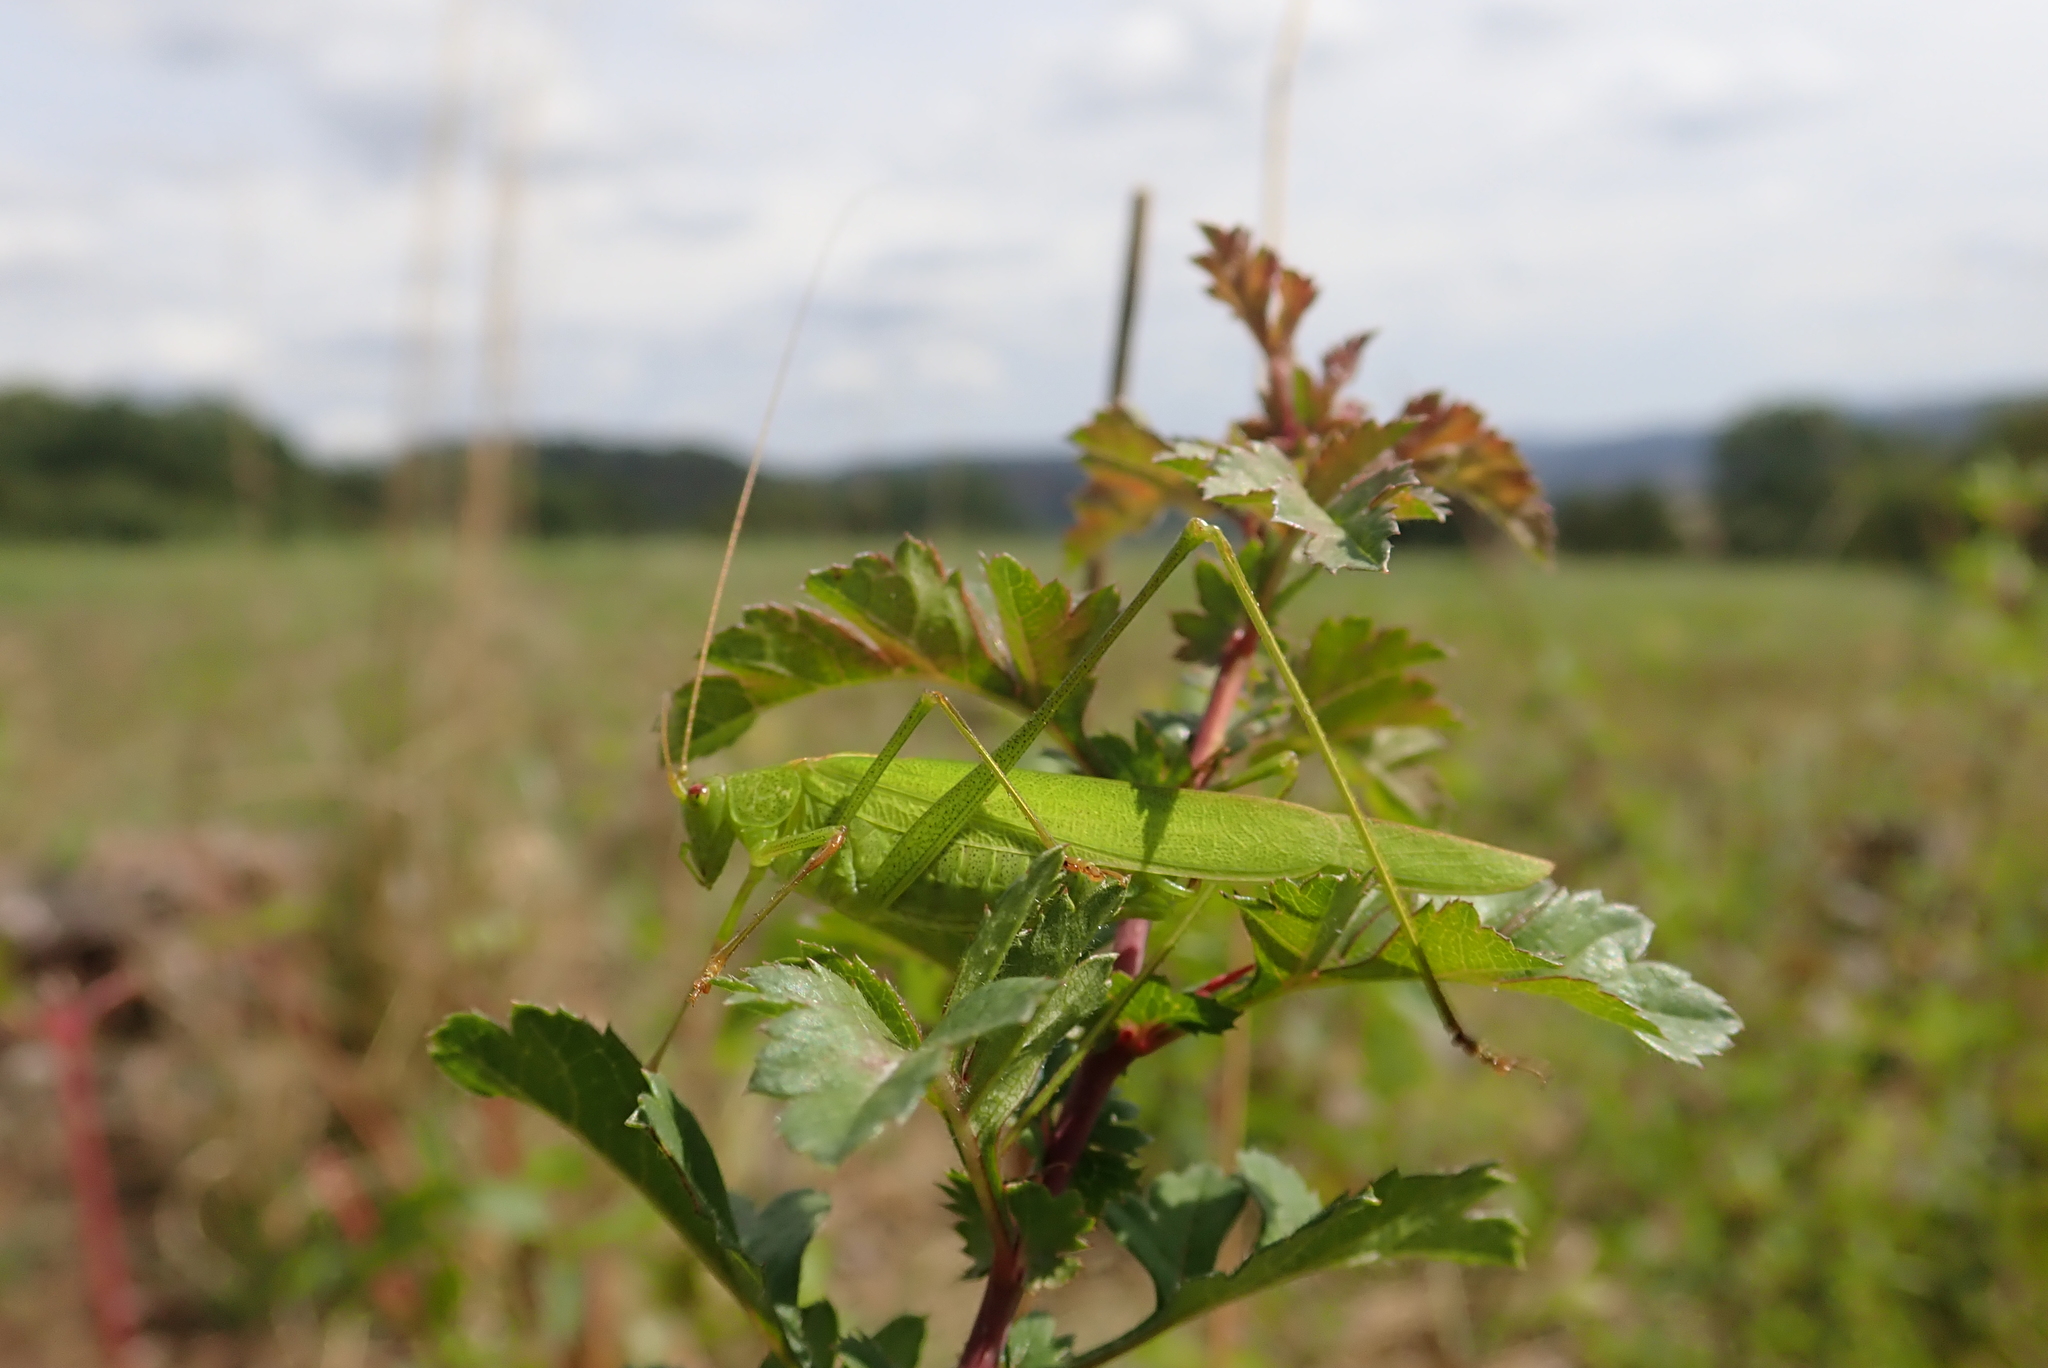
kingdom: Animalia
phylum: Arthropoda
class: Insecta
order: Orthoptera
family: Tettigoniidae
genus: Phaneroptera
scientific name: Phaneroptera falcata
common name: Sickle-bearing bush-cricket
